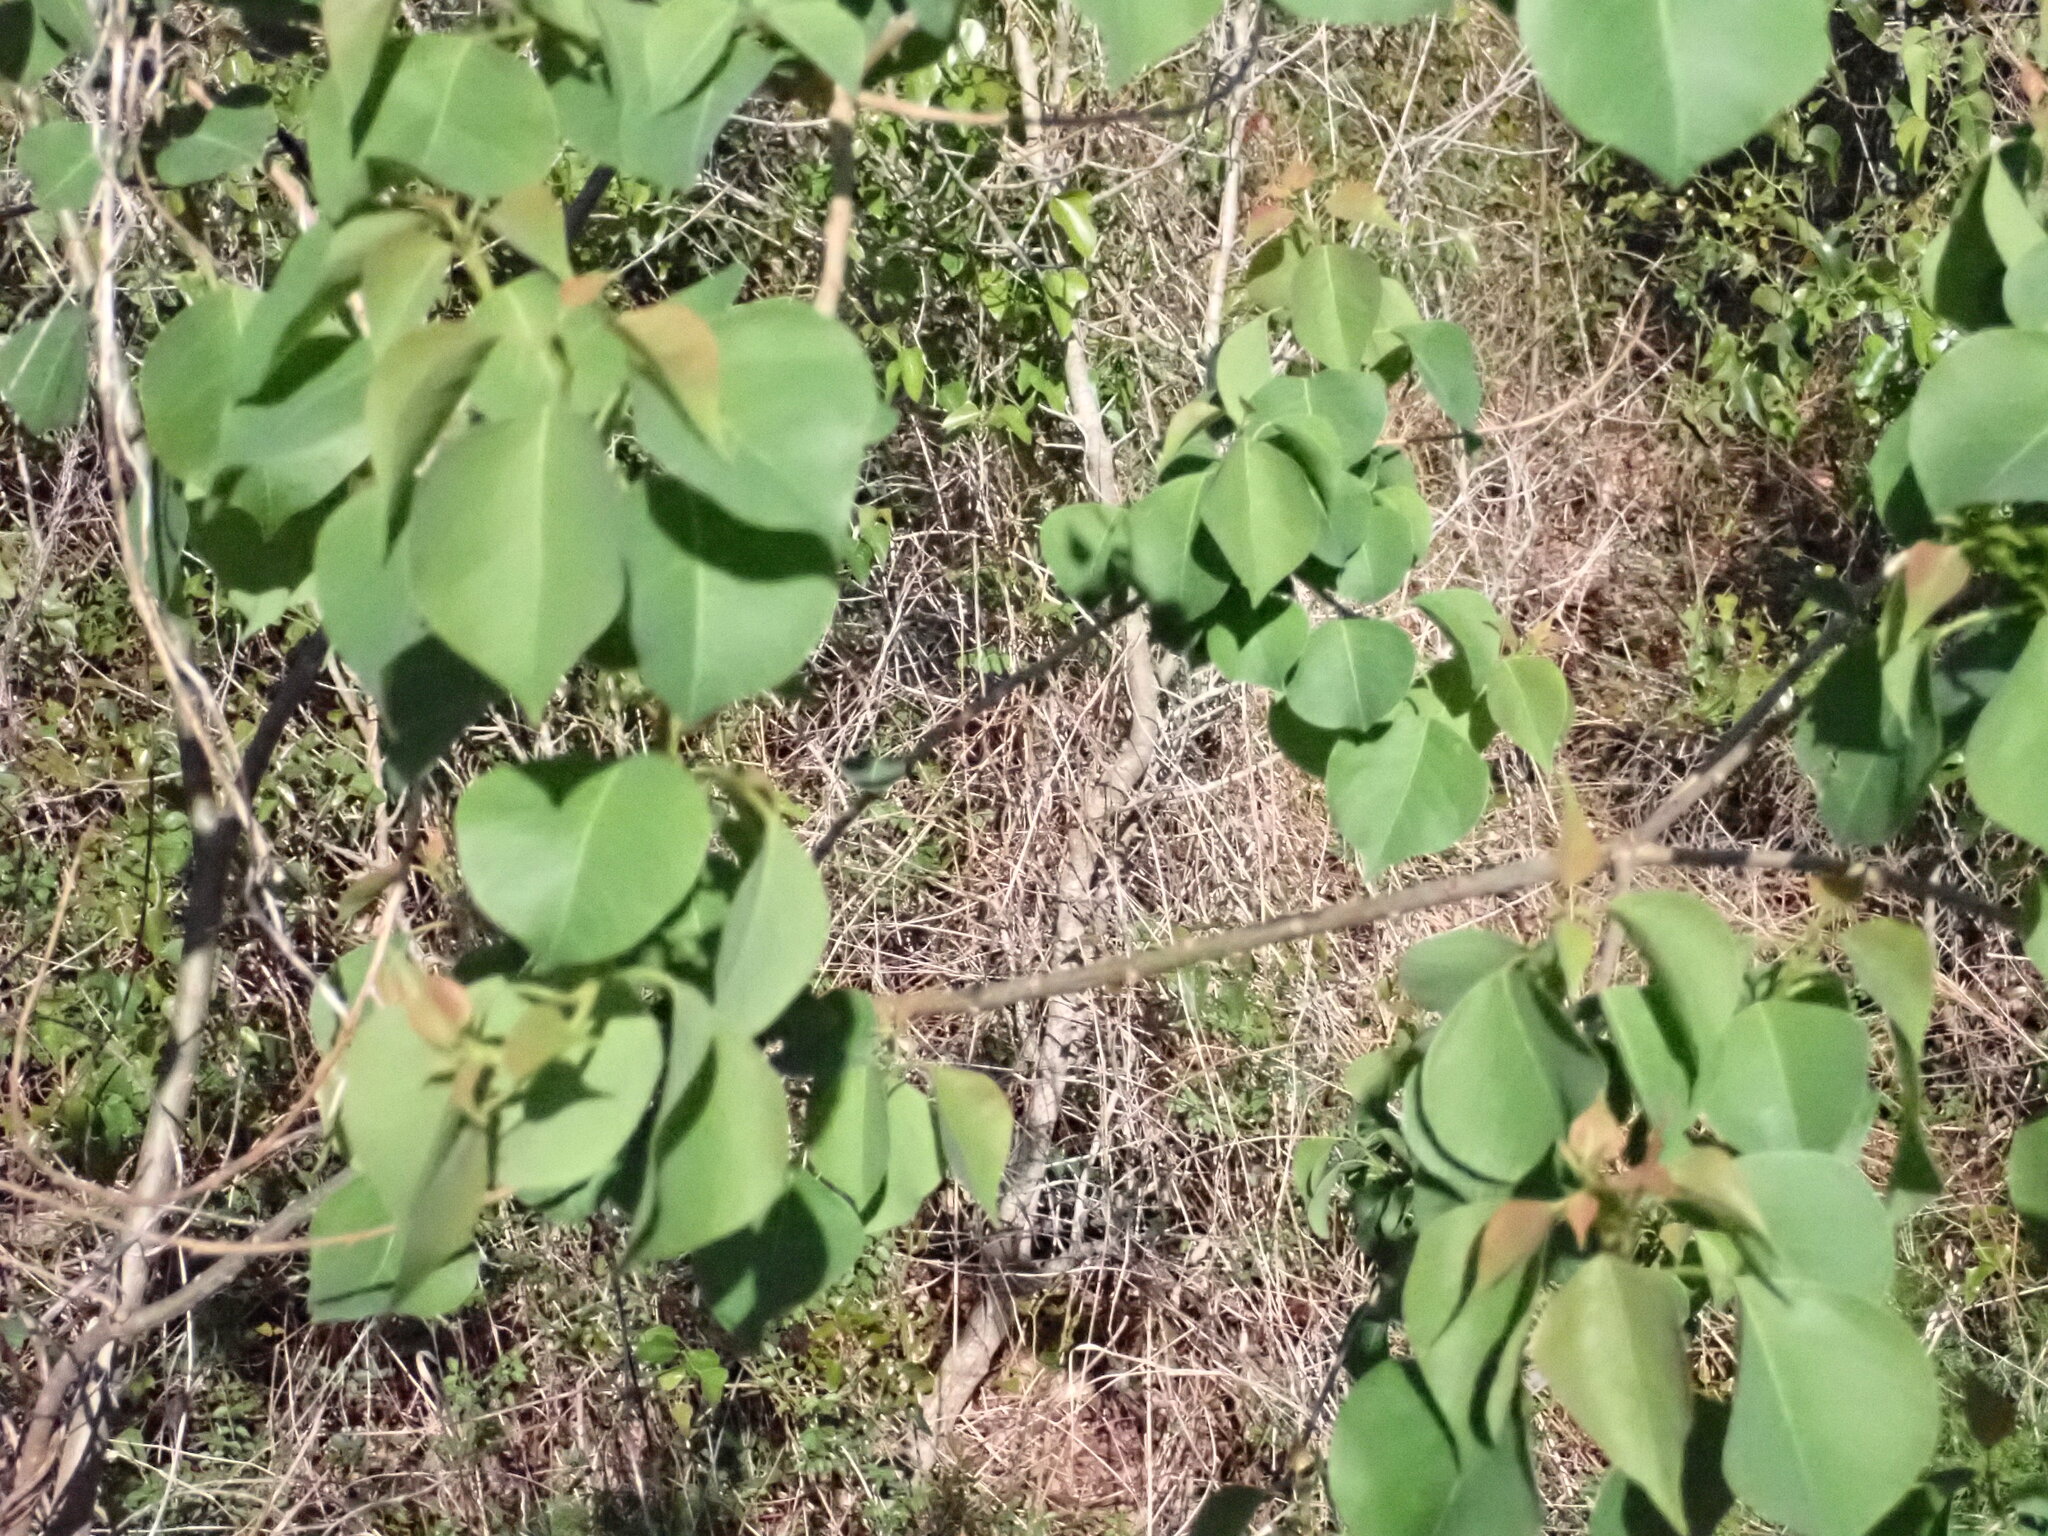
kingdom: Plantae
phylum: Tracheophyta
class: Magnoliopsida
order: Malpighiales
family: Euphorbiaceae
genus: Triadica
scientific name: Triadica sebifera
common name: Chinese tallow
